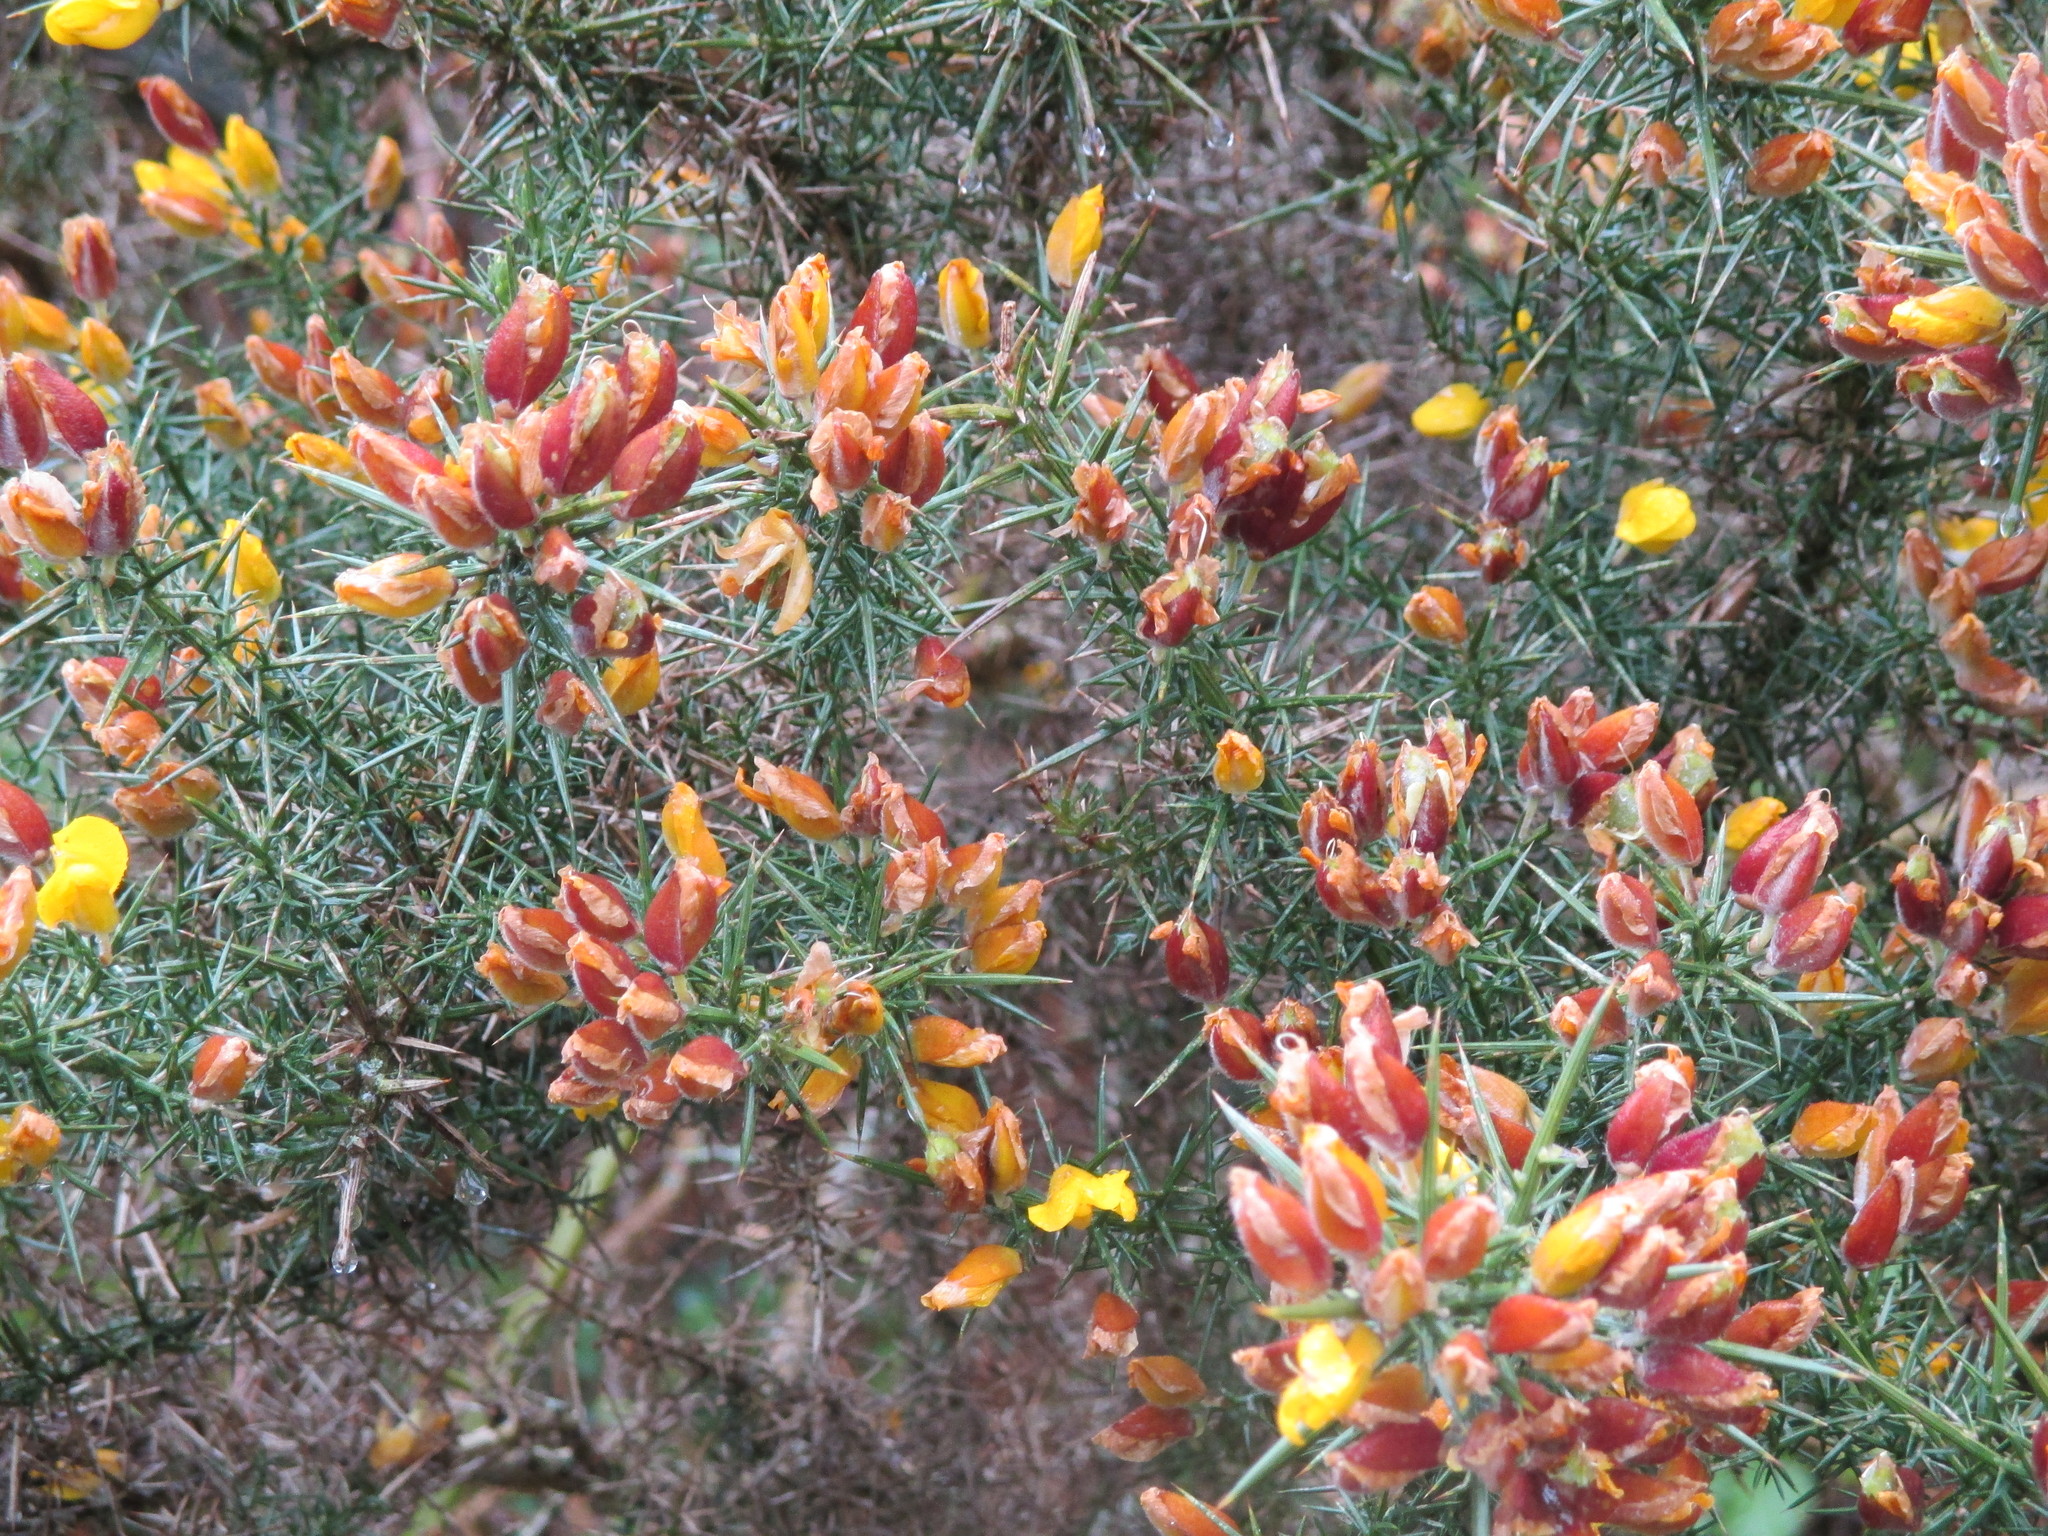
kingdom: Plantae
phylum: Tracheophyta
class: Magnoliopsida
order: Fabales
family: Fabaceae
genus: Ulex
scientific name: Ulex europaeus
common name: Common gorse
